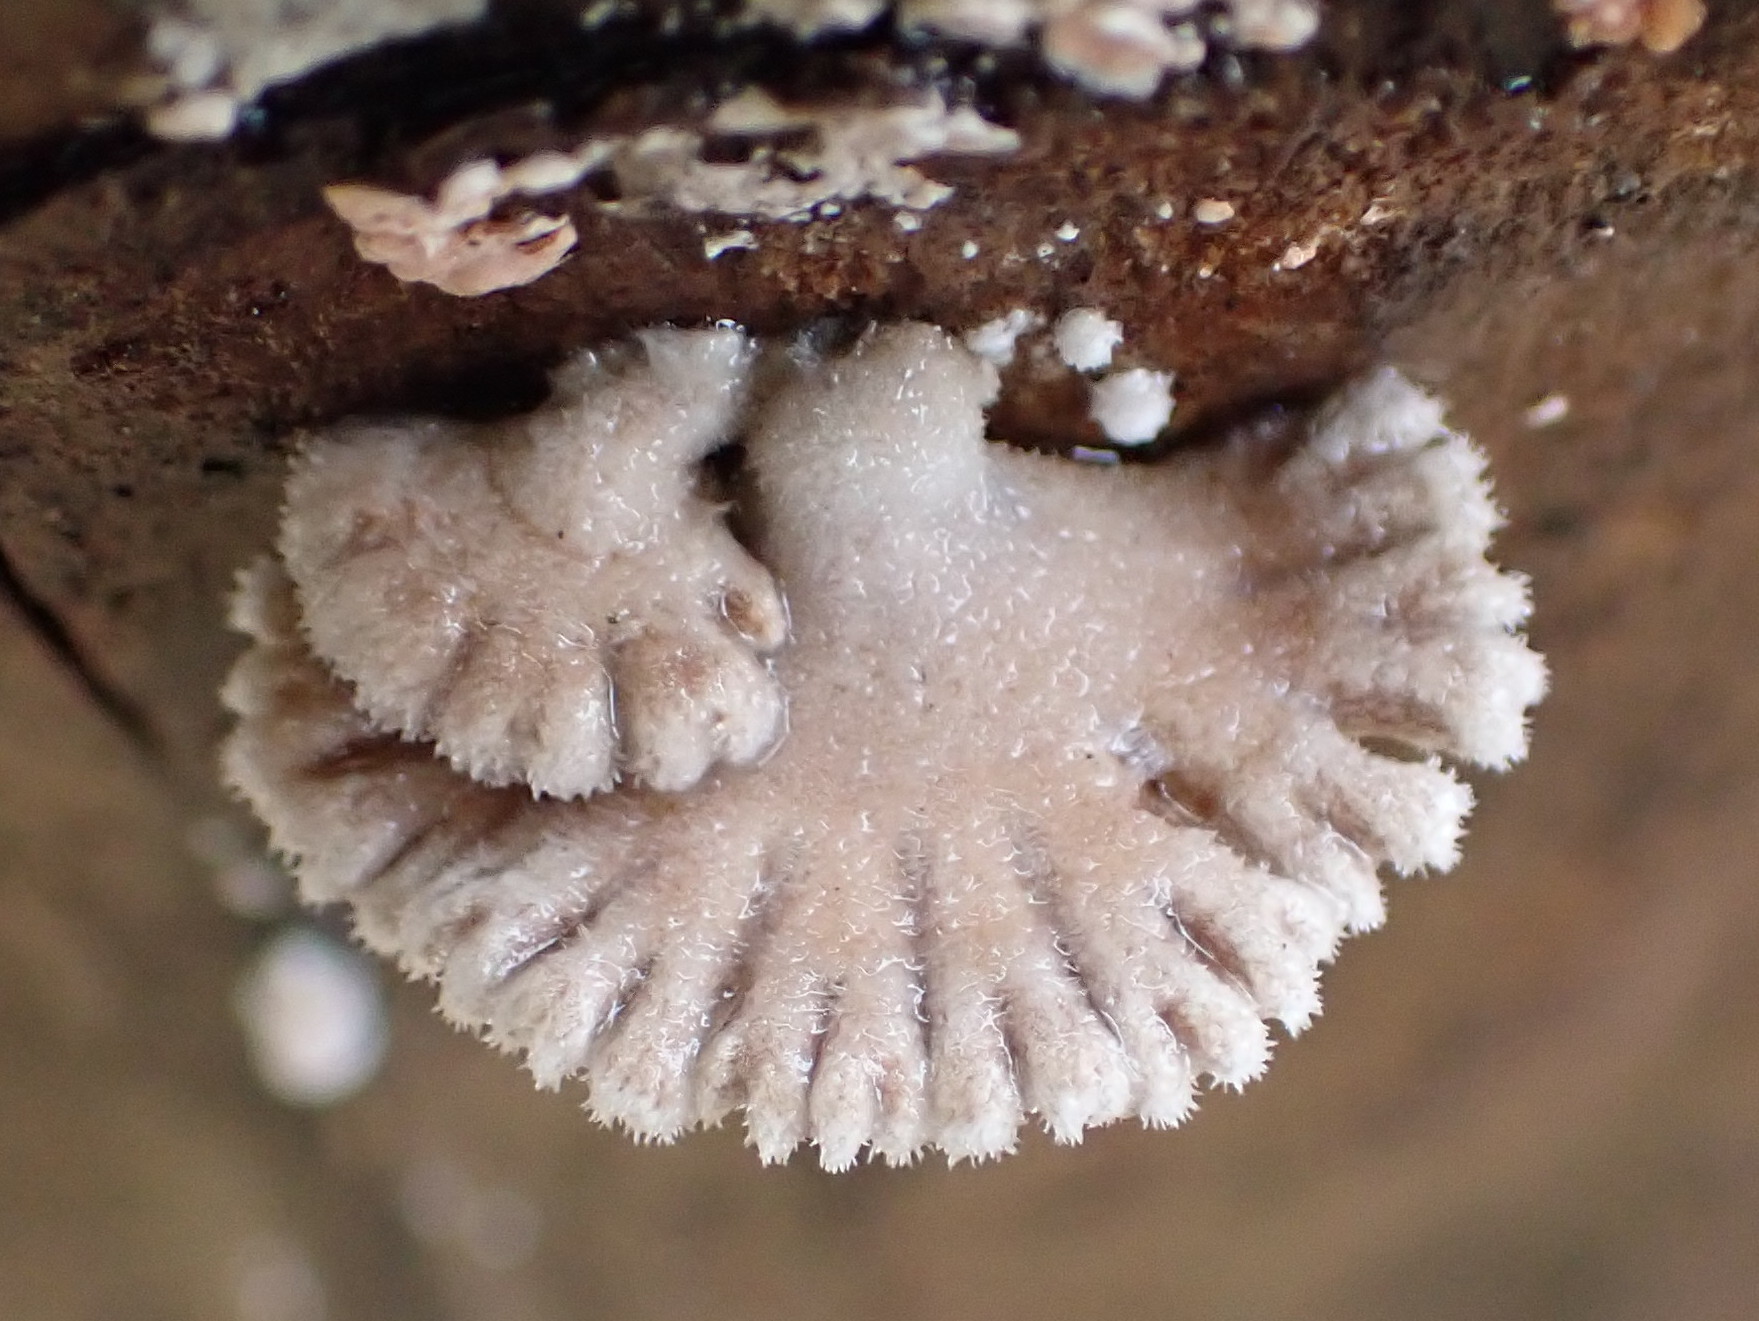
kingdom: Fungi
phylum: Basidiomycota
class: Agaricomycetes
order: Agaricales
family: Schizophyllaceae
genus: Schizophyllum
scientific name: Schizophyllum commune
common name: Common porecrust
